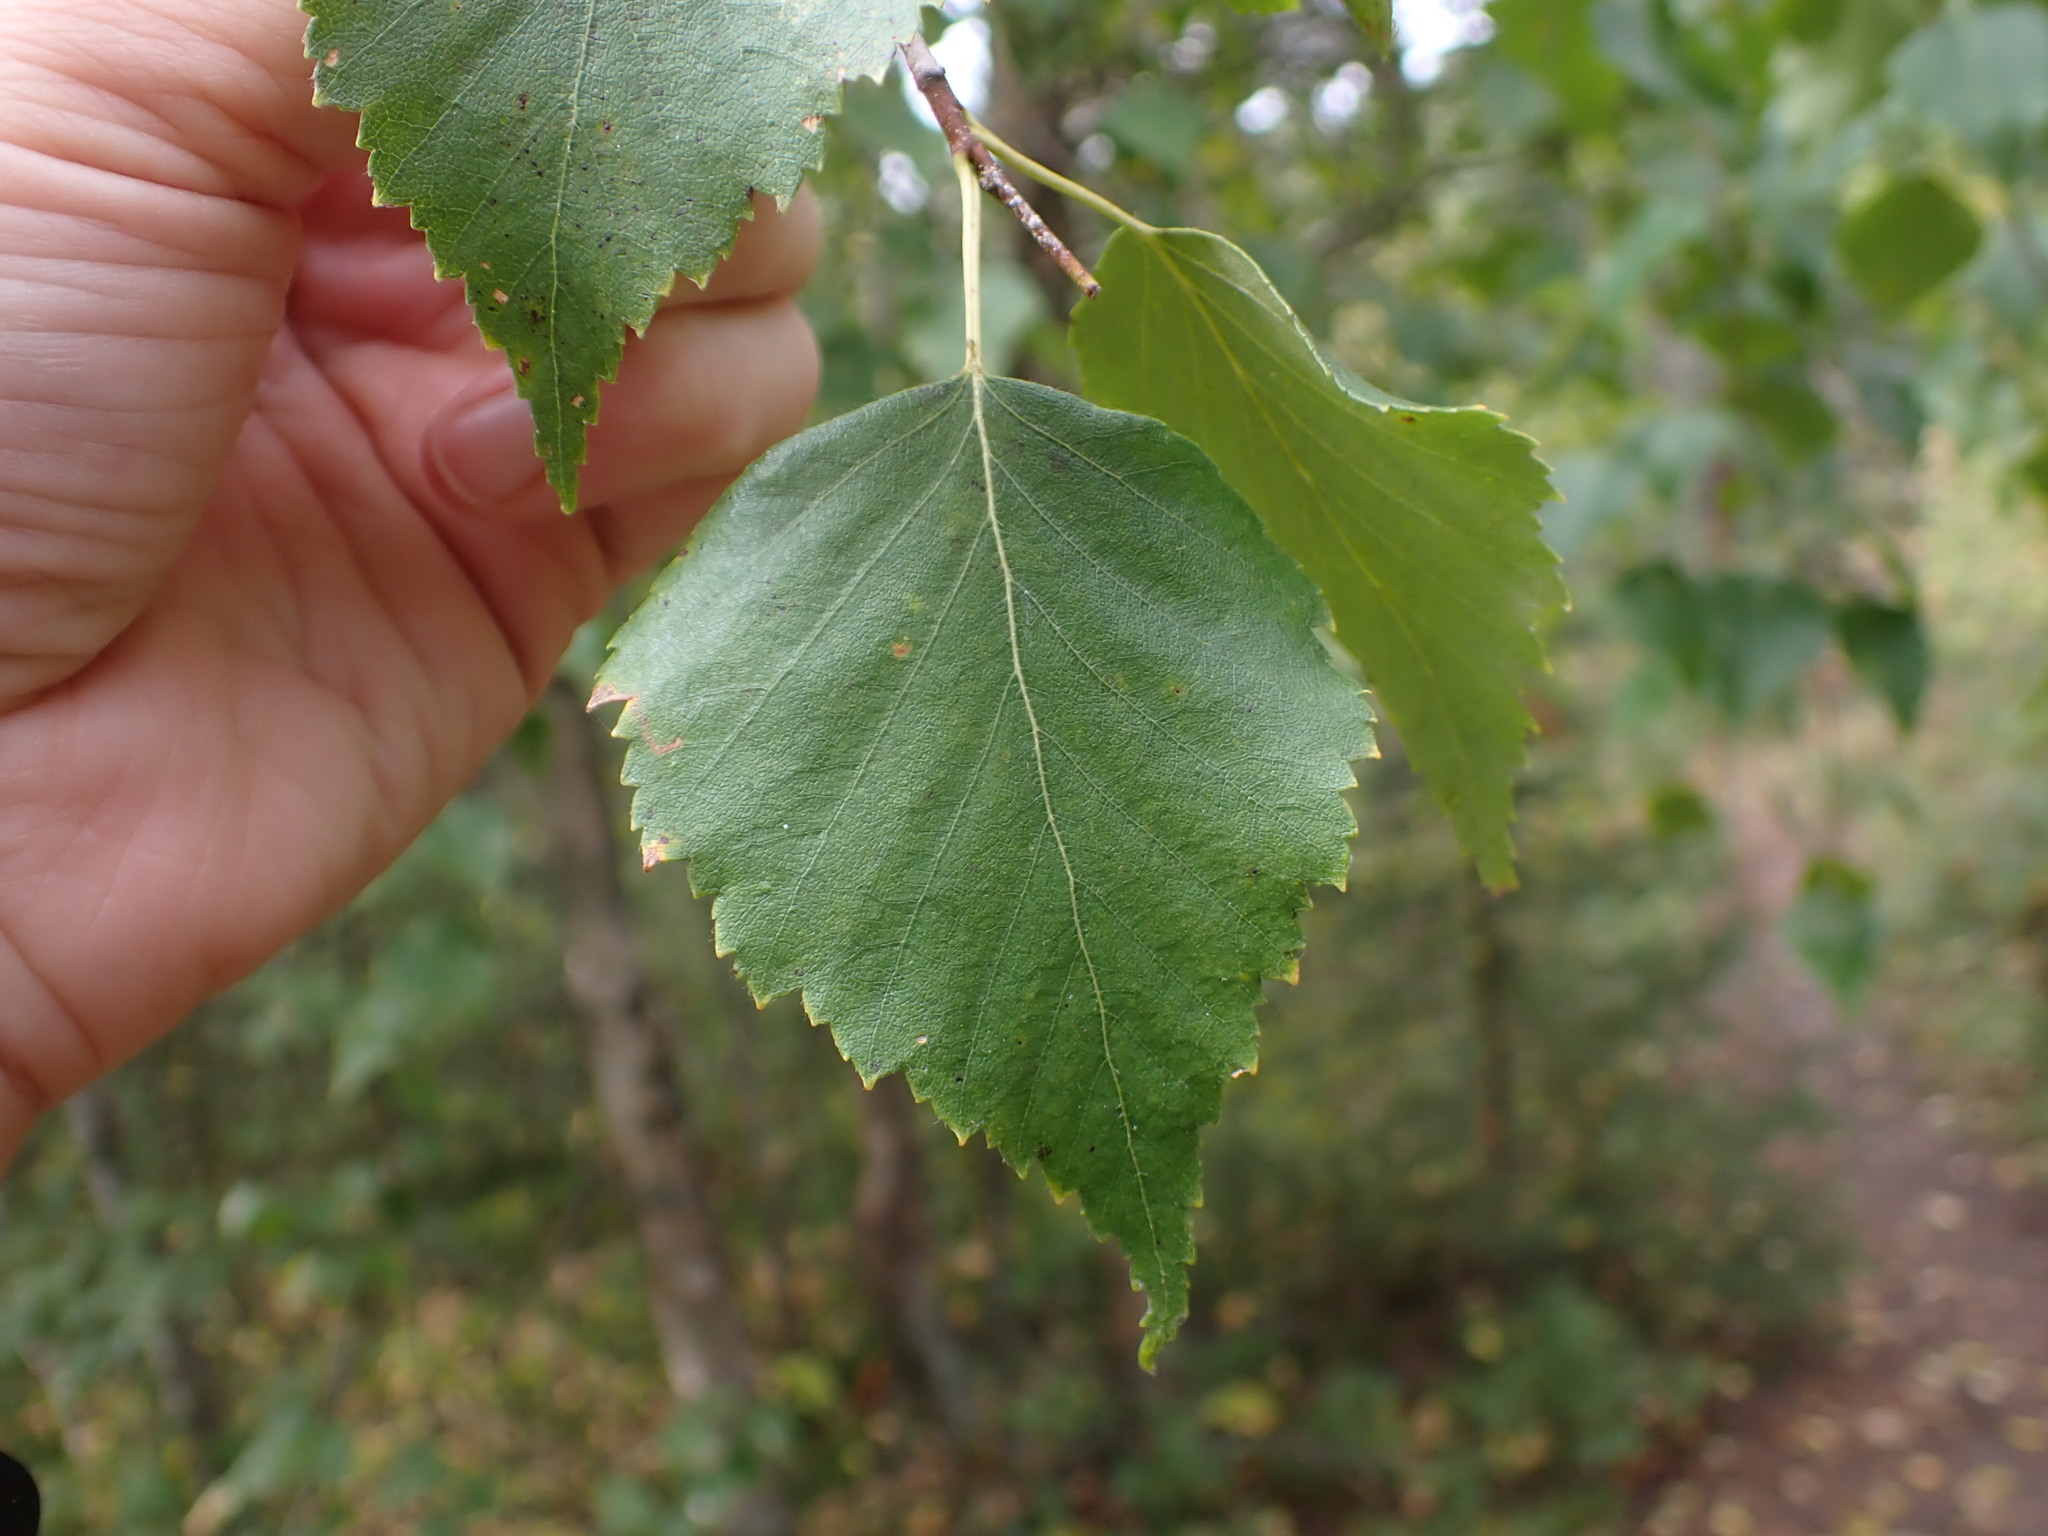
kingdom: Plantae
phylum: Tracheophyta
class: Magnoliopsida
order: Fagales
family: Betulaceae
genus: Betula
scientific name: Betula papyrifera
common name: Paper birch
